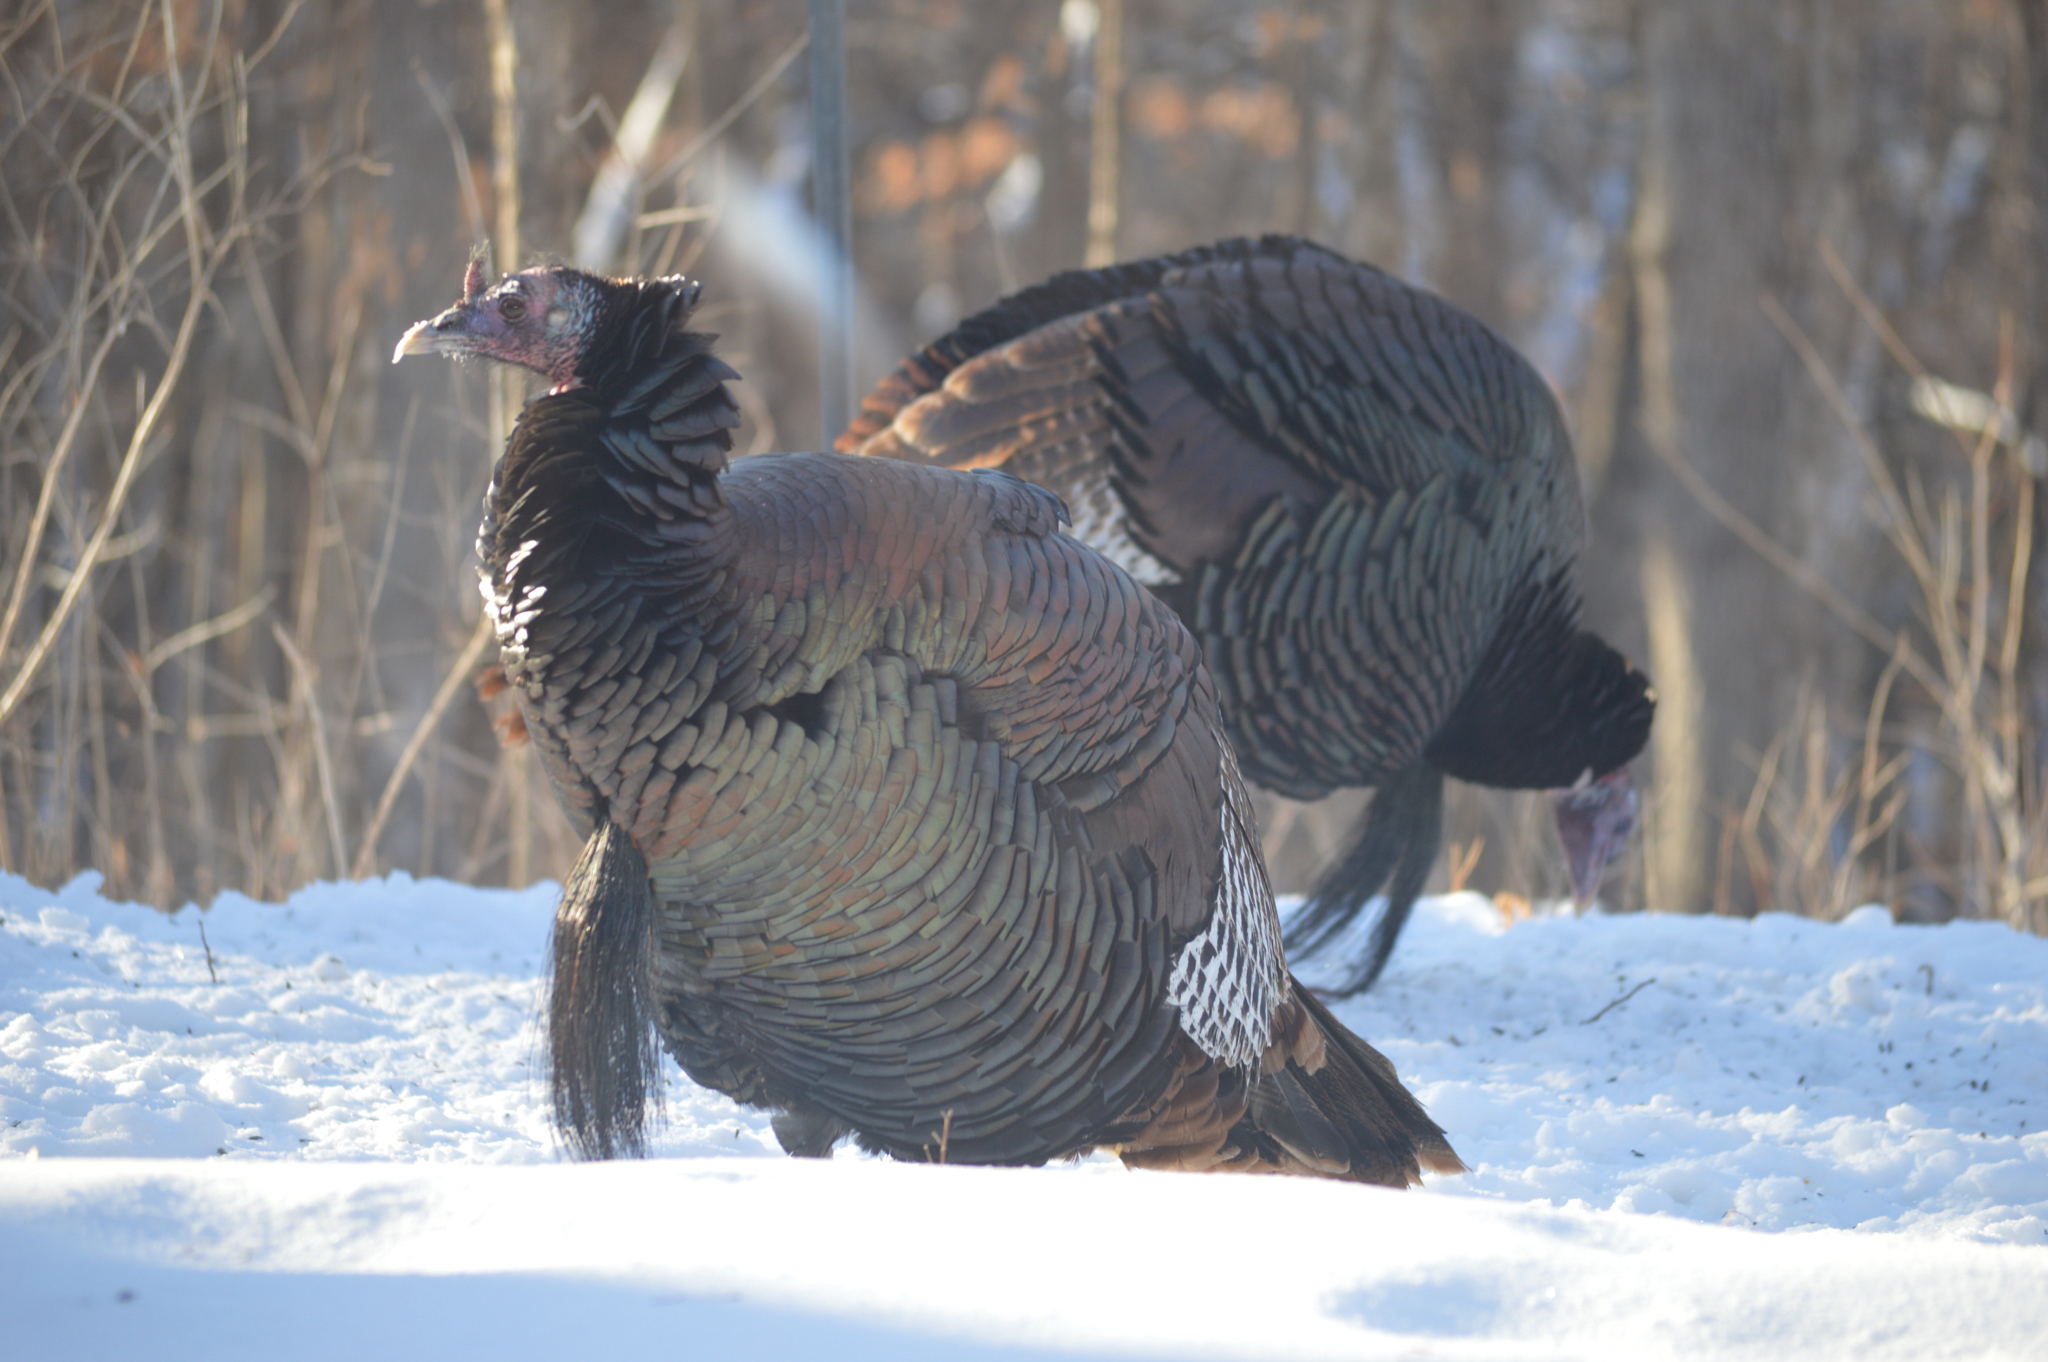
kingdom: Animalia
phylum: Chordata
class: Aves
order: Galliformes
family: Phasianidae
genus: Meleagris
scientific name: Meleagris gallopavo
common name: Wild turkey
